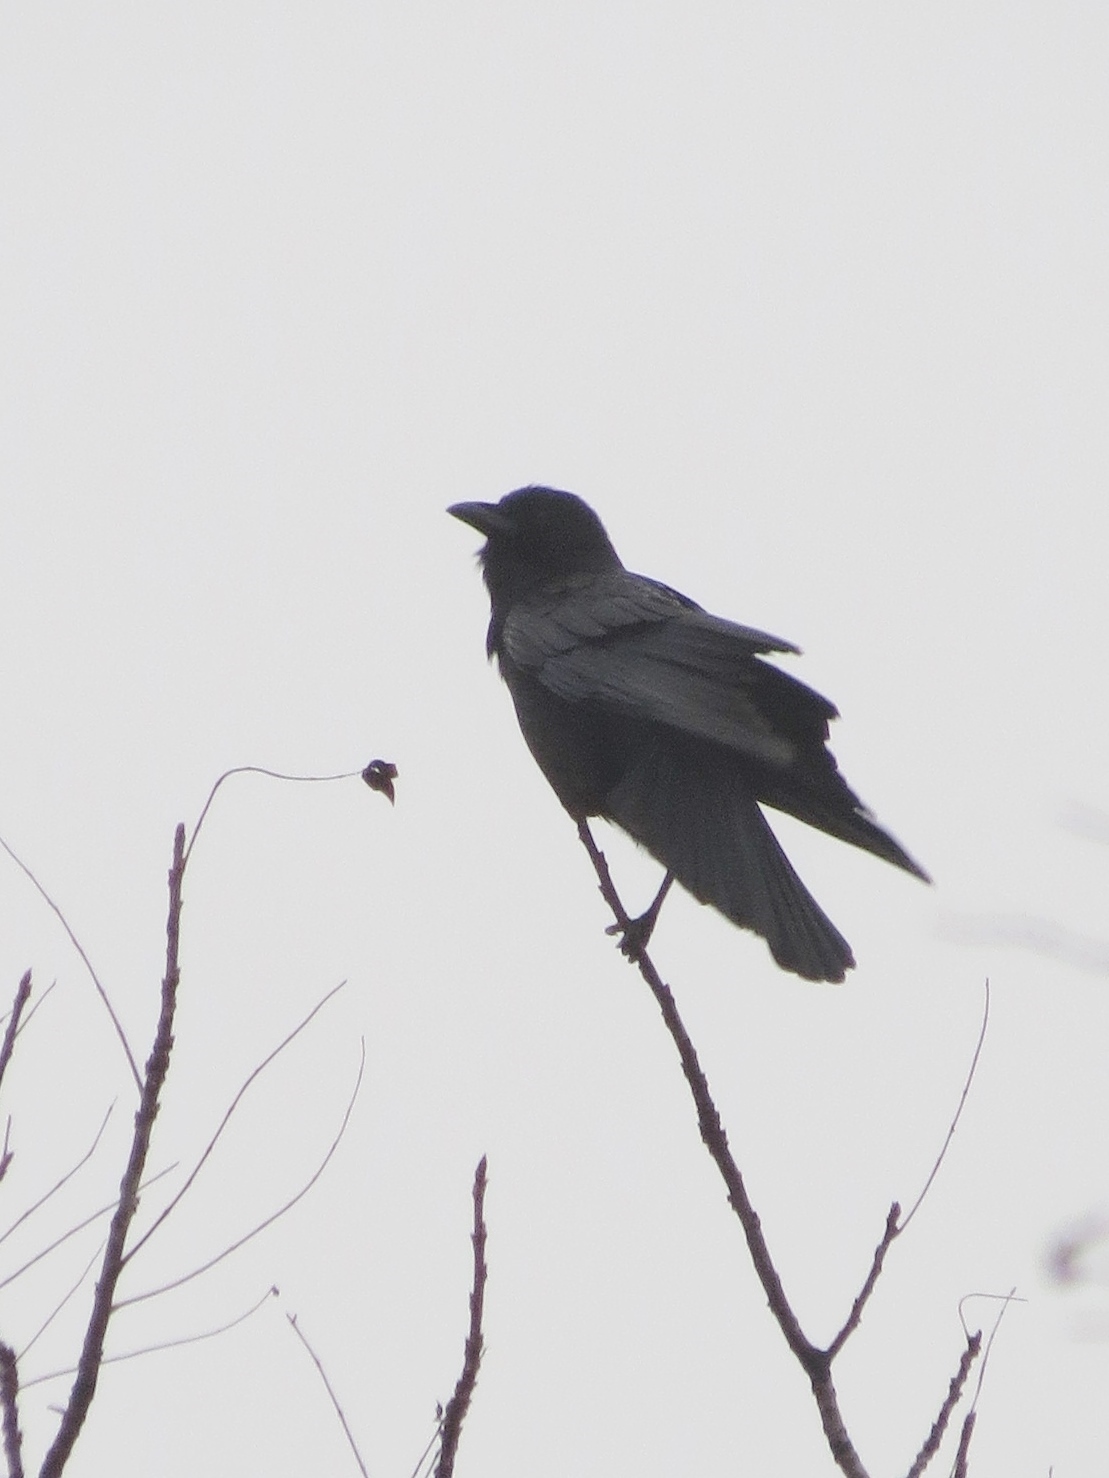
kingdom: Animalia
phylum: Chordata
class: Aves
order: Passeriformes
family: Corvidae
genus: Corvus
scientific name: Corvus brachyrhynchos
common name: American crow
